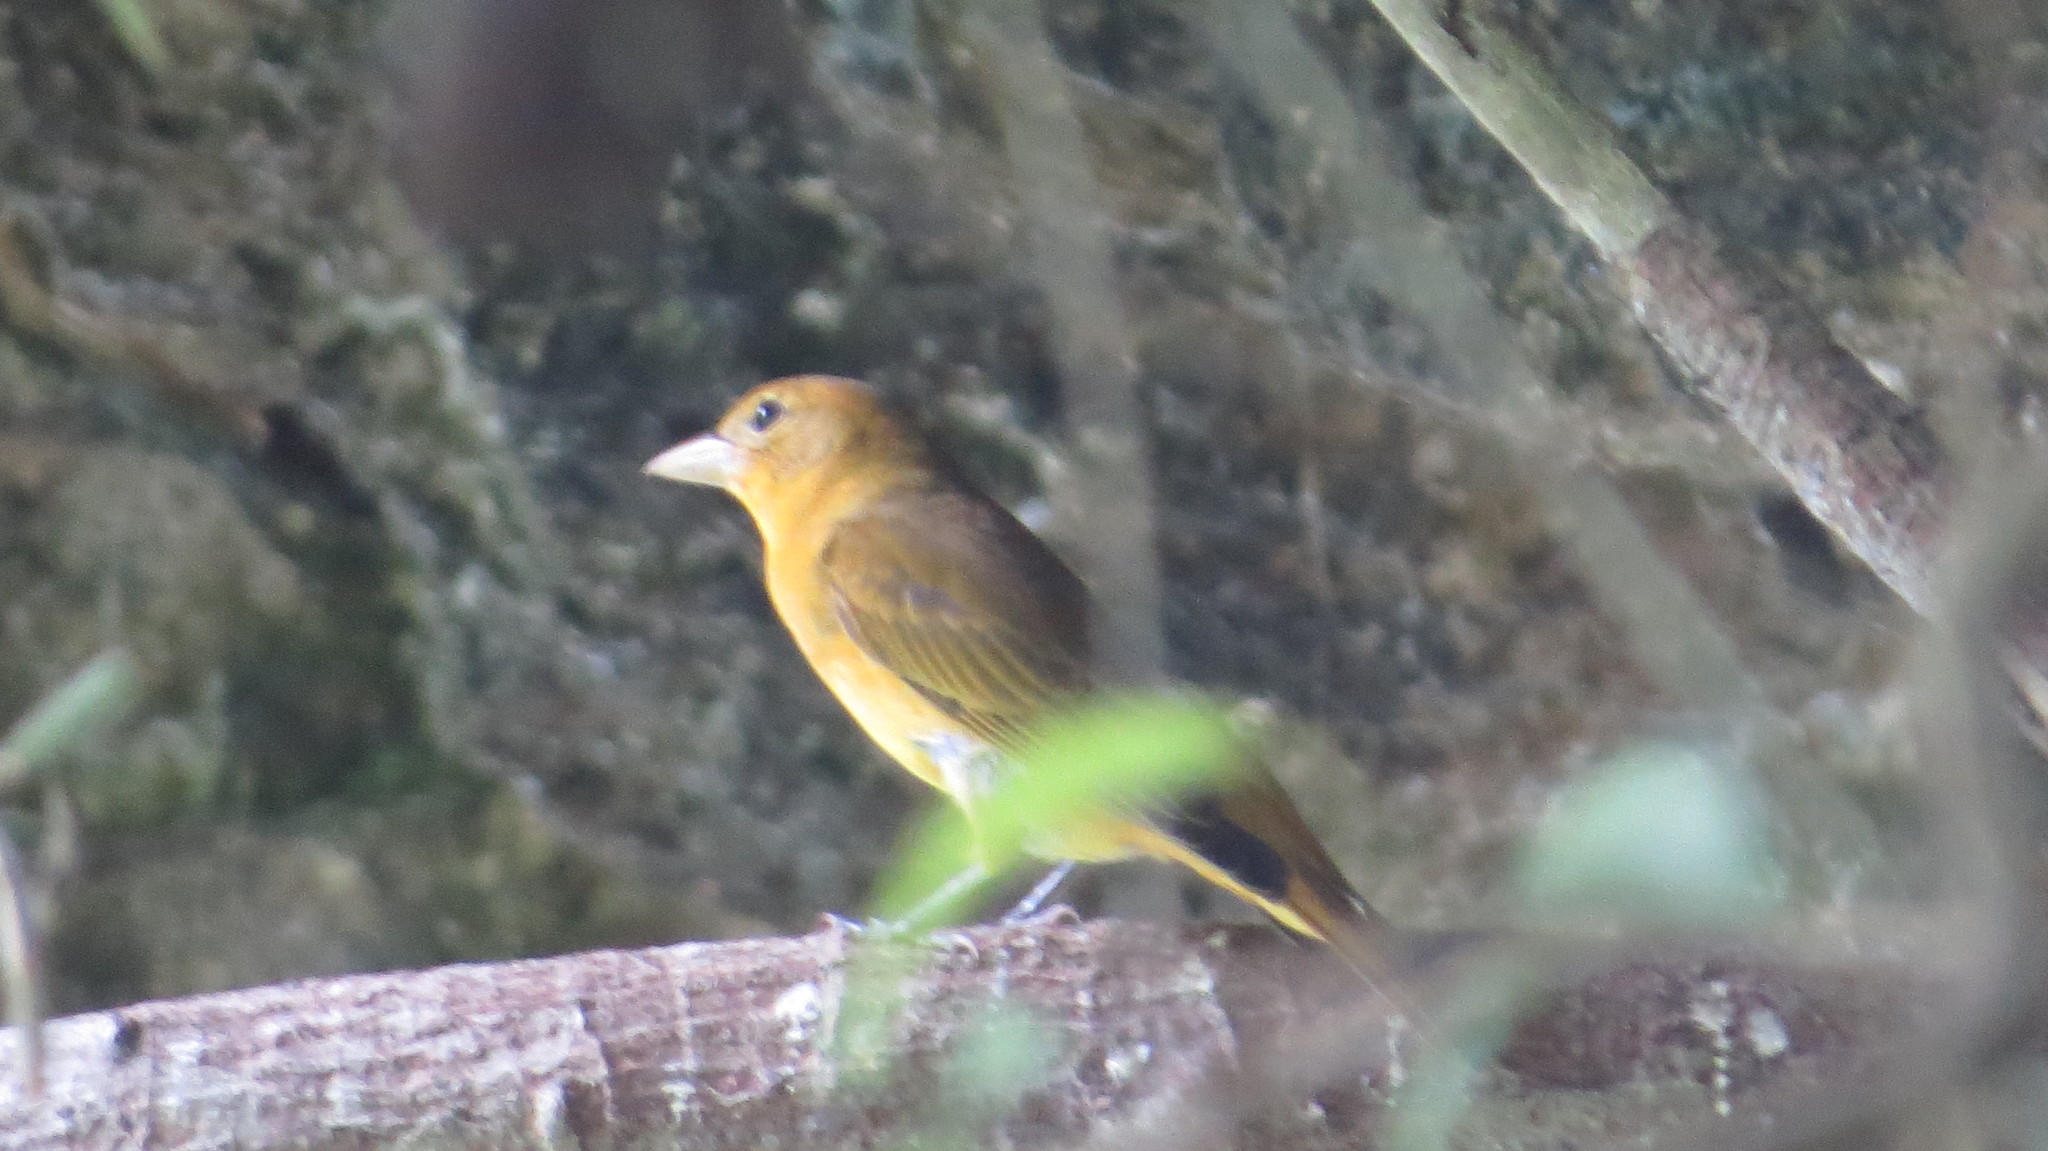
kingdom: Animalia
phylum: Chordata
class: Aves
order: Passeriformes
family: Cardinalidae
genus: Piranga
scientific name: Piranga rubra
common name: Summer tanager
